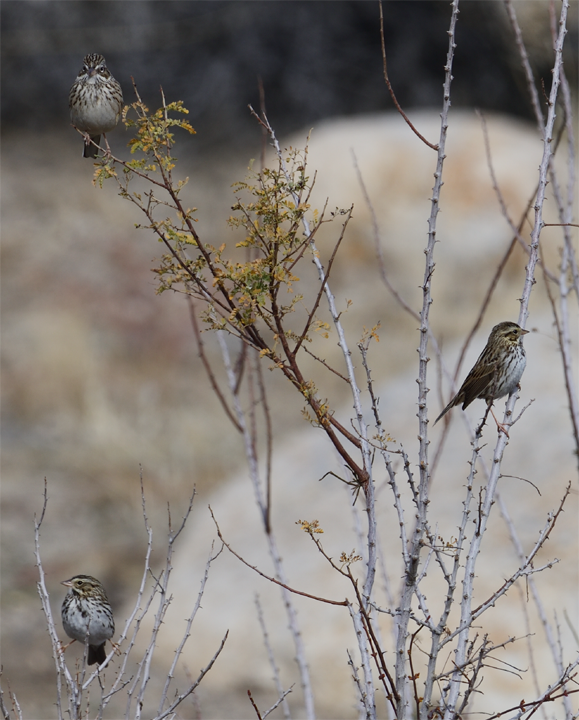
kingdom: Animalia
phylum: Chordata
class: Aves
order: Passeriformes
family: Passerellidae
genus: Passerculus
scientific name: Passerculus sandwichensis
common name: Savannah sparrow
